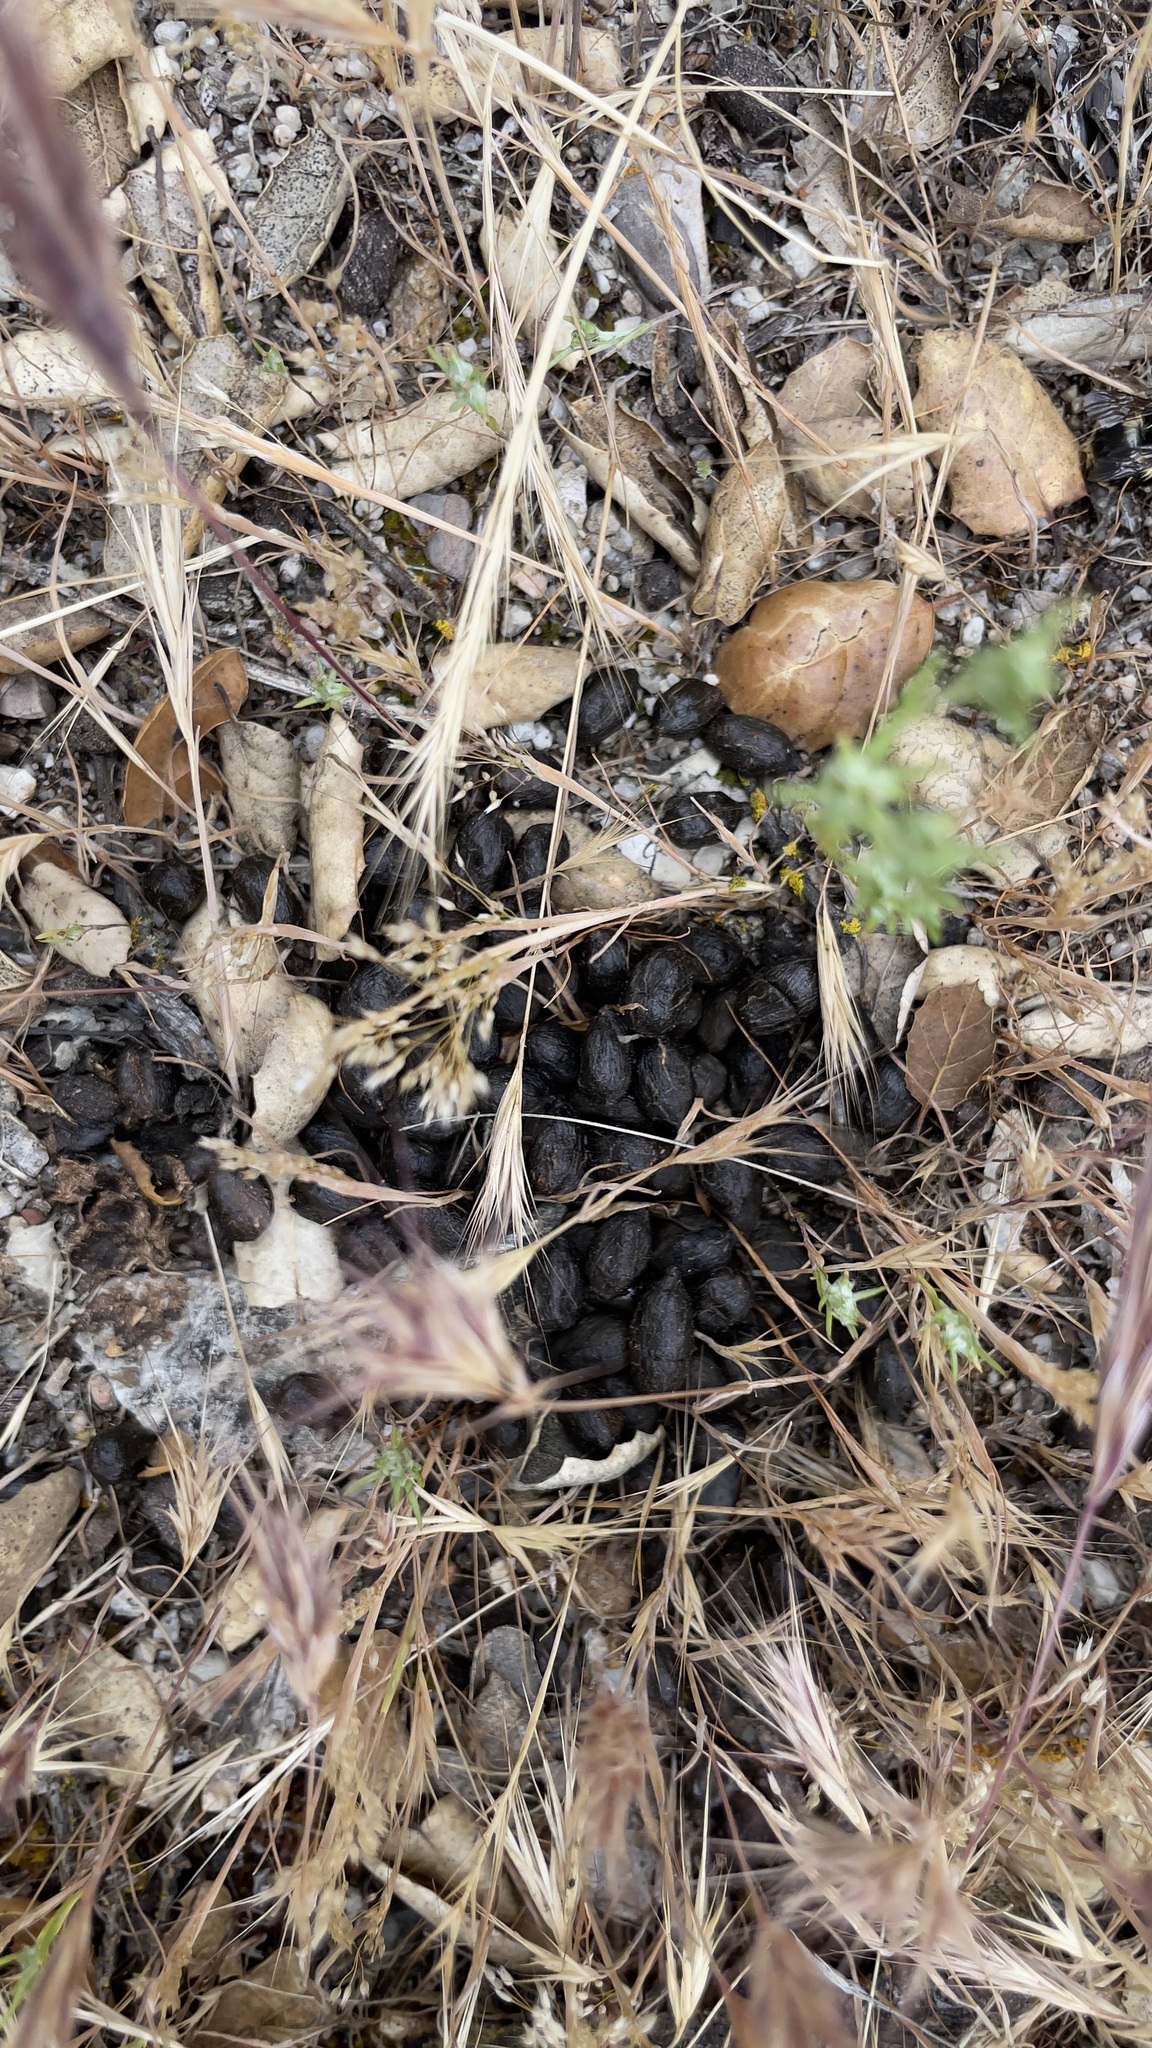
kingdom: Animalia
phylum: Chordata
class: Mammalia
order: Artiodactyla
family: Cervidae
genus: Odocoileus
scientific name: Odocoileus hemionus
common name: Mule deer
